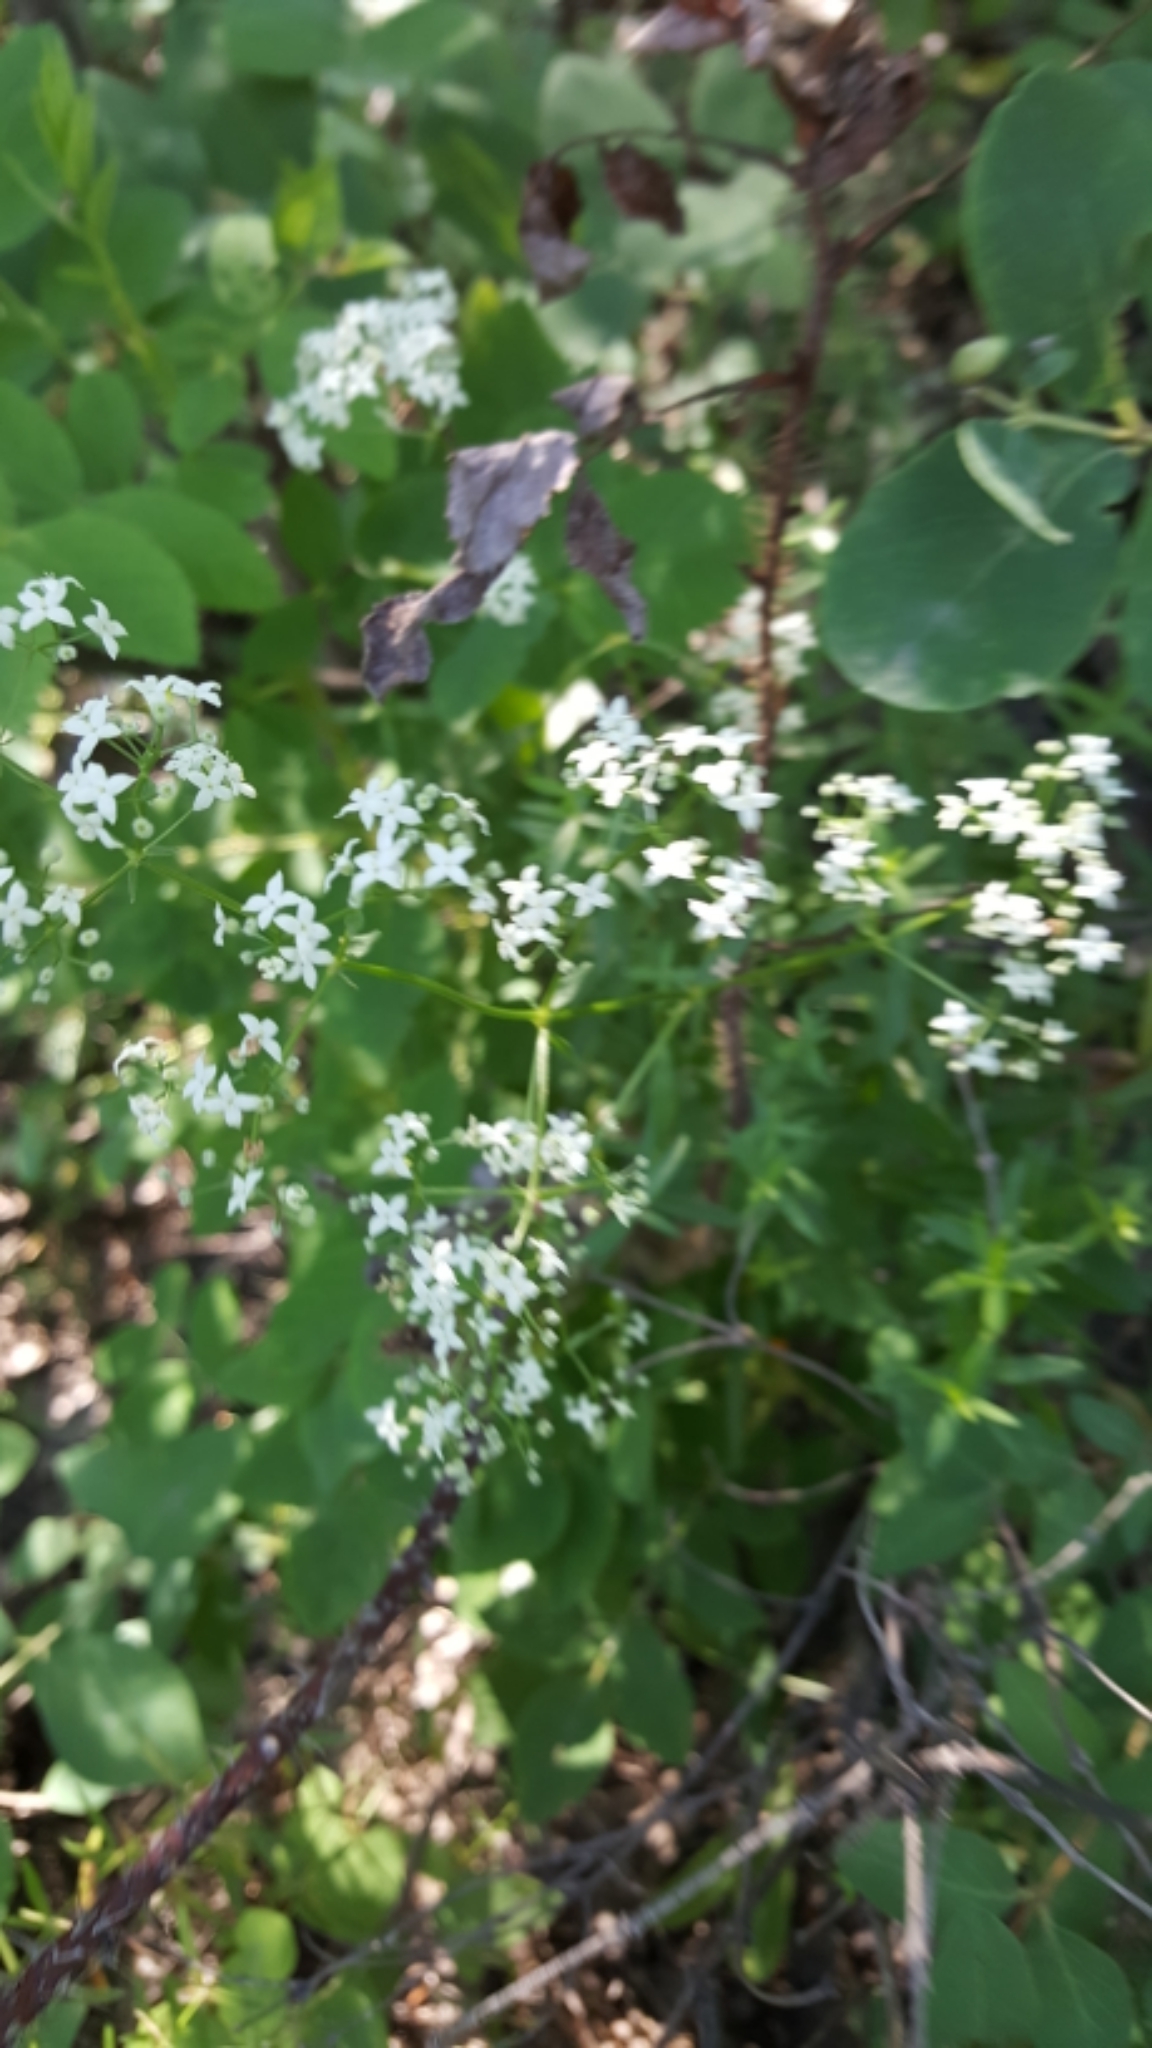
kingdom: Plantae
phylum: Tracheophyta
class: Magnoliopsida
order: Gentianales
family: Rubiaceae
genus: Galium
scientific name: Galium boreale
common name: Northern bedstraw
